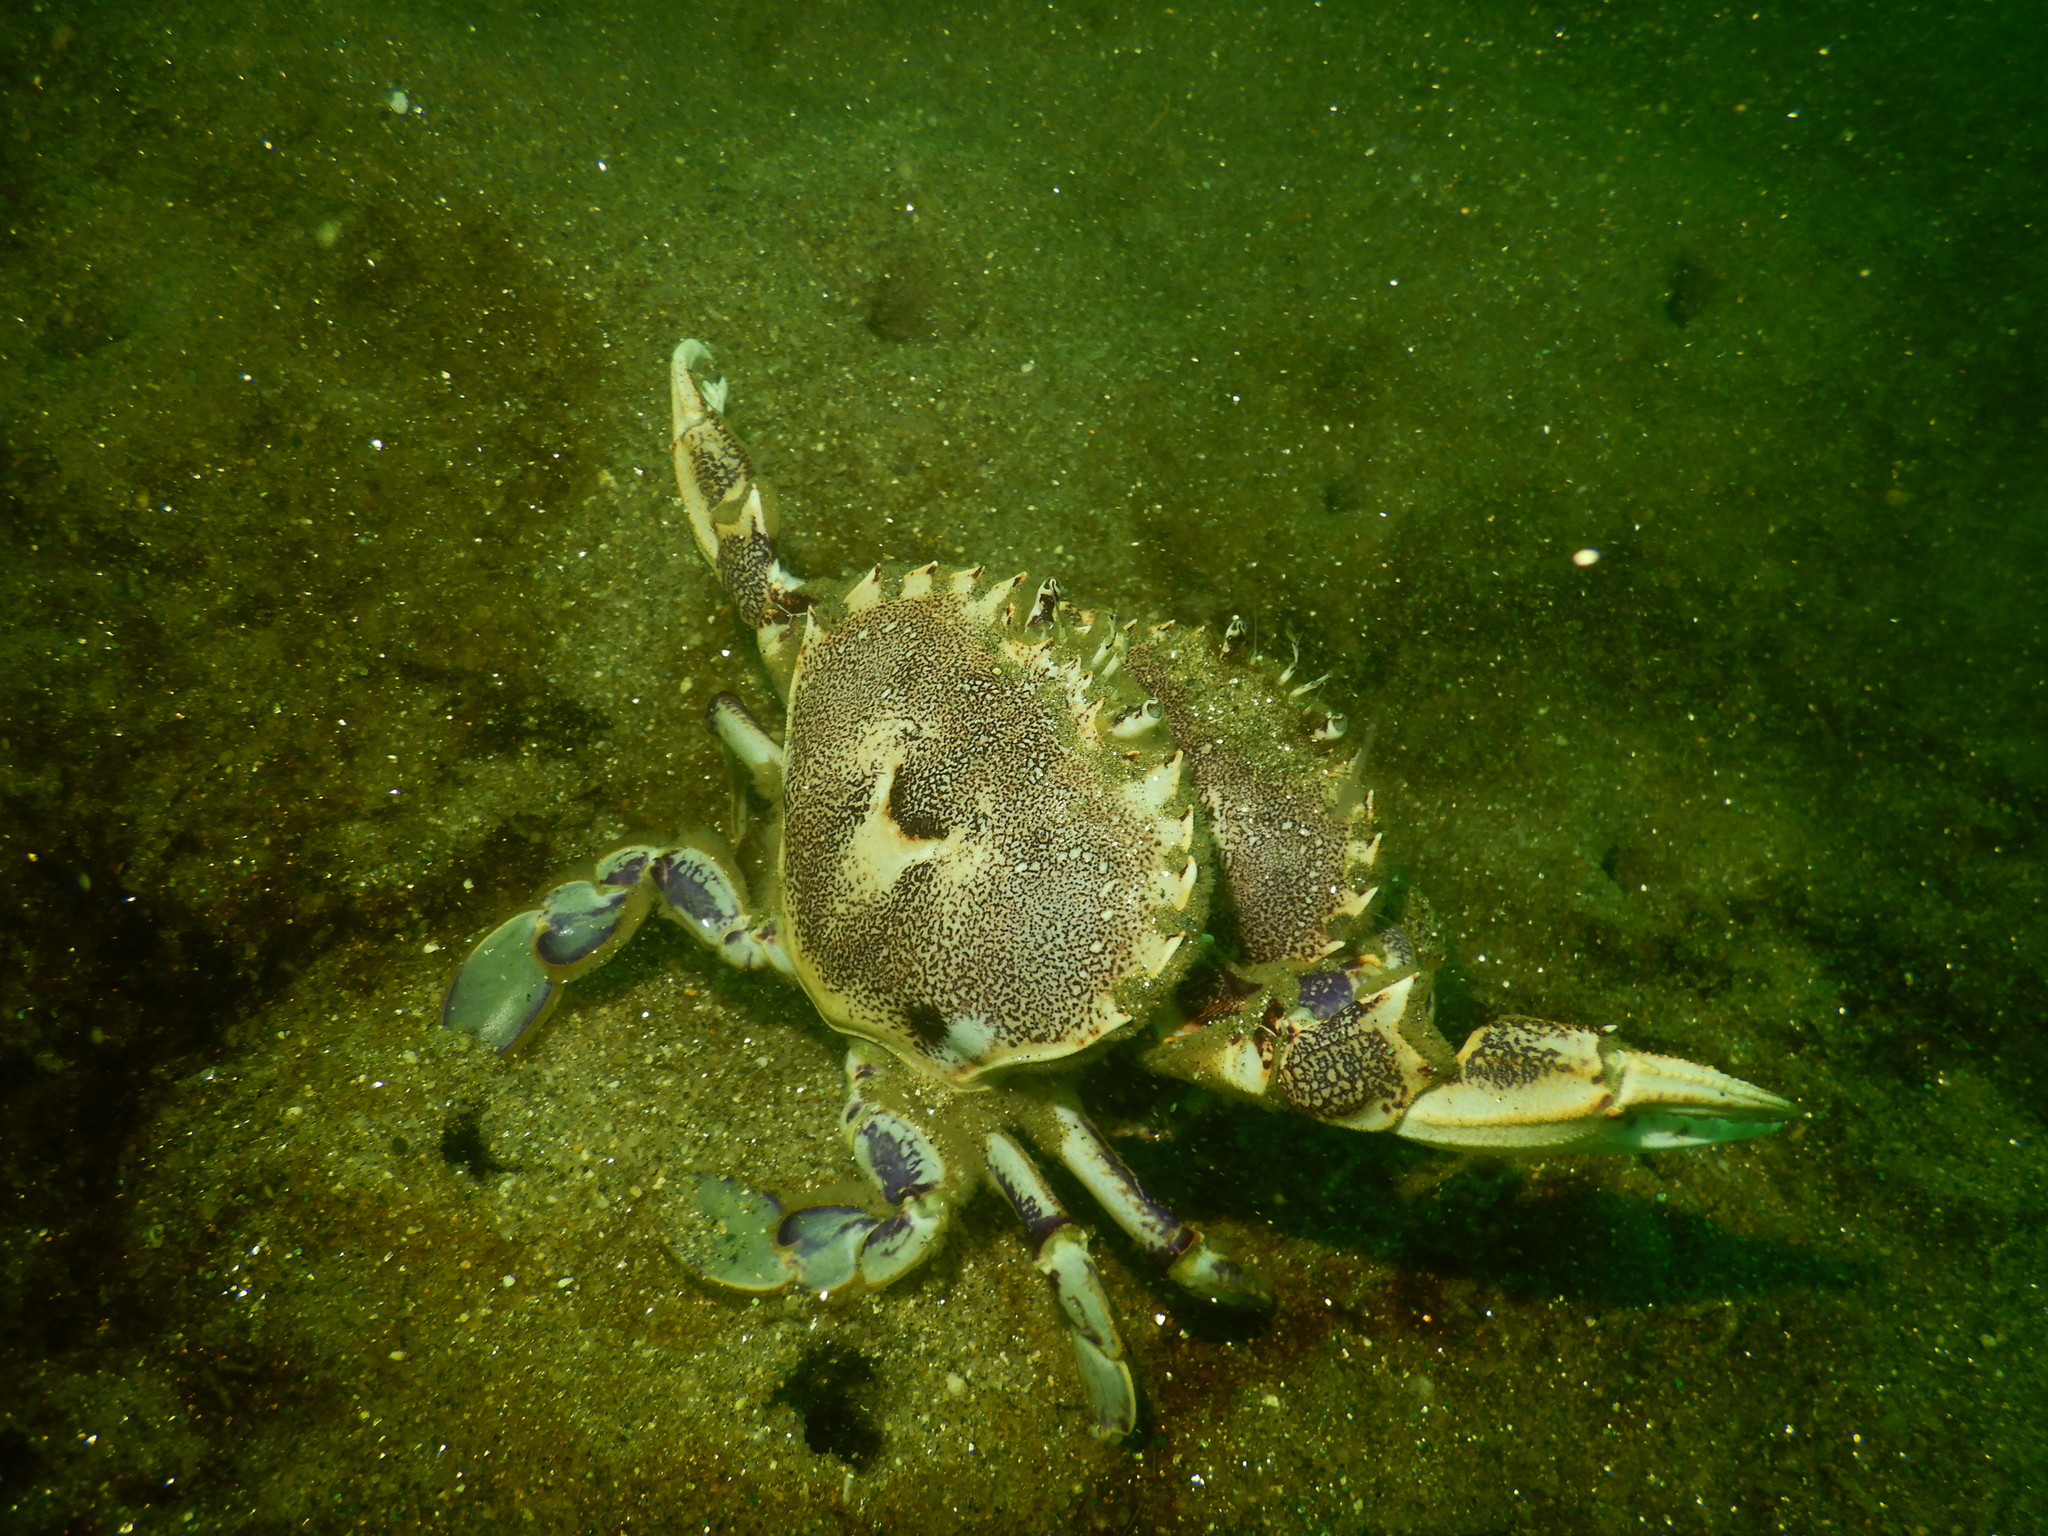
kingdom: Animalia
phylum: Arthropoda
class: Malacostraca
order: Decapoda
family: Ovalipidae
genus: Ovalipes
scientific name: Ovalipes trimaculatus
